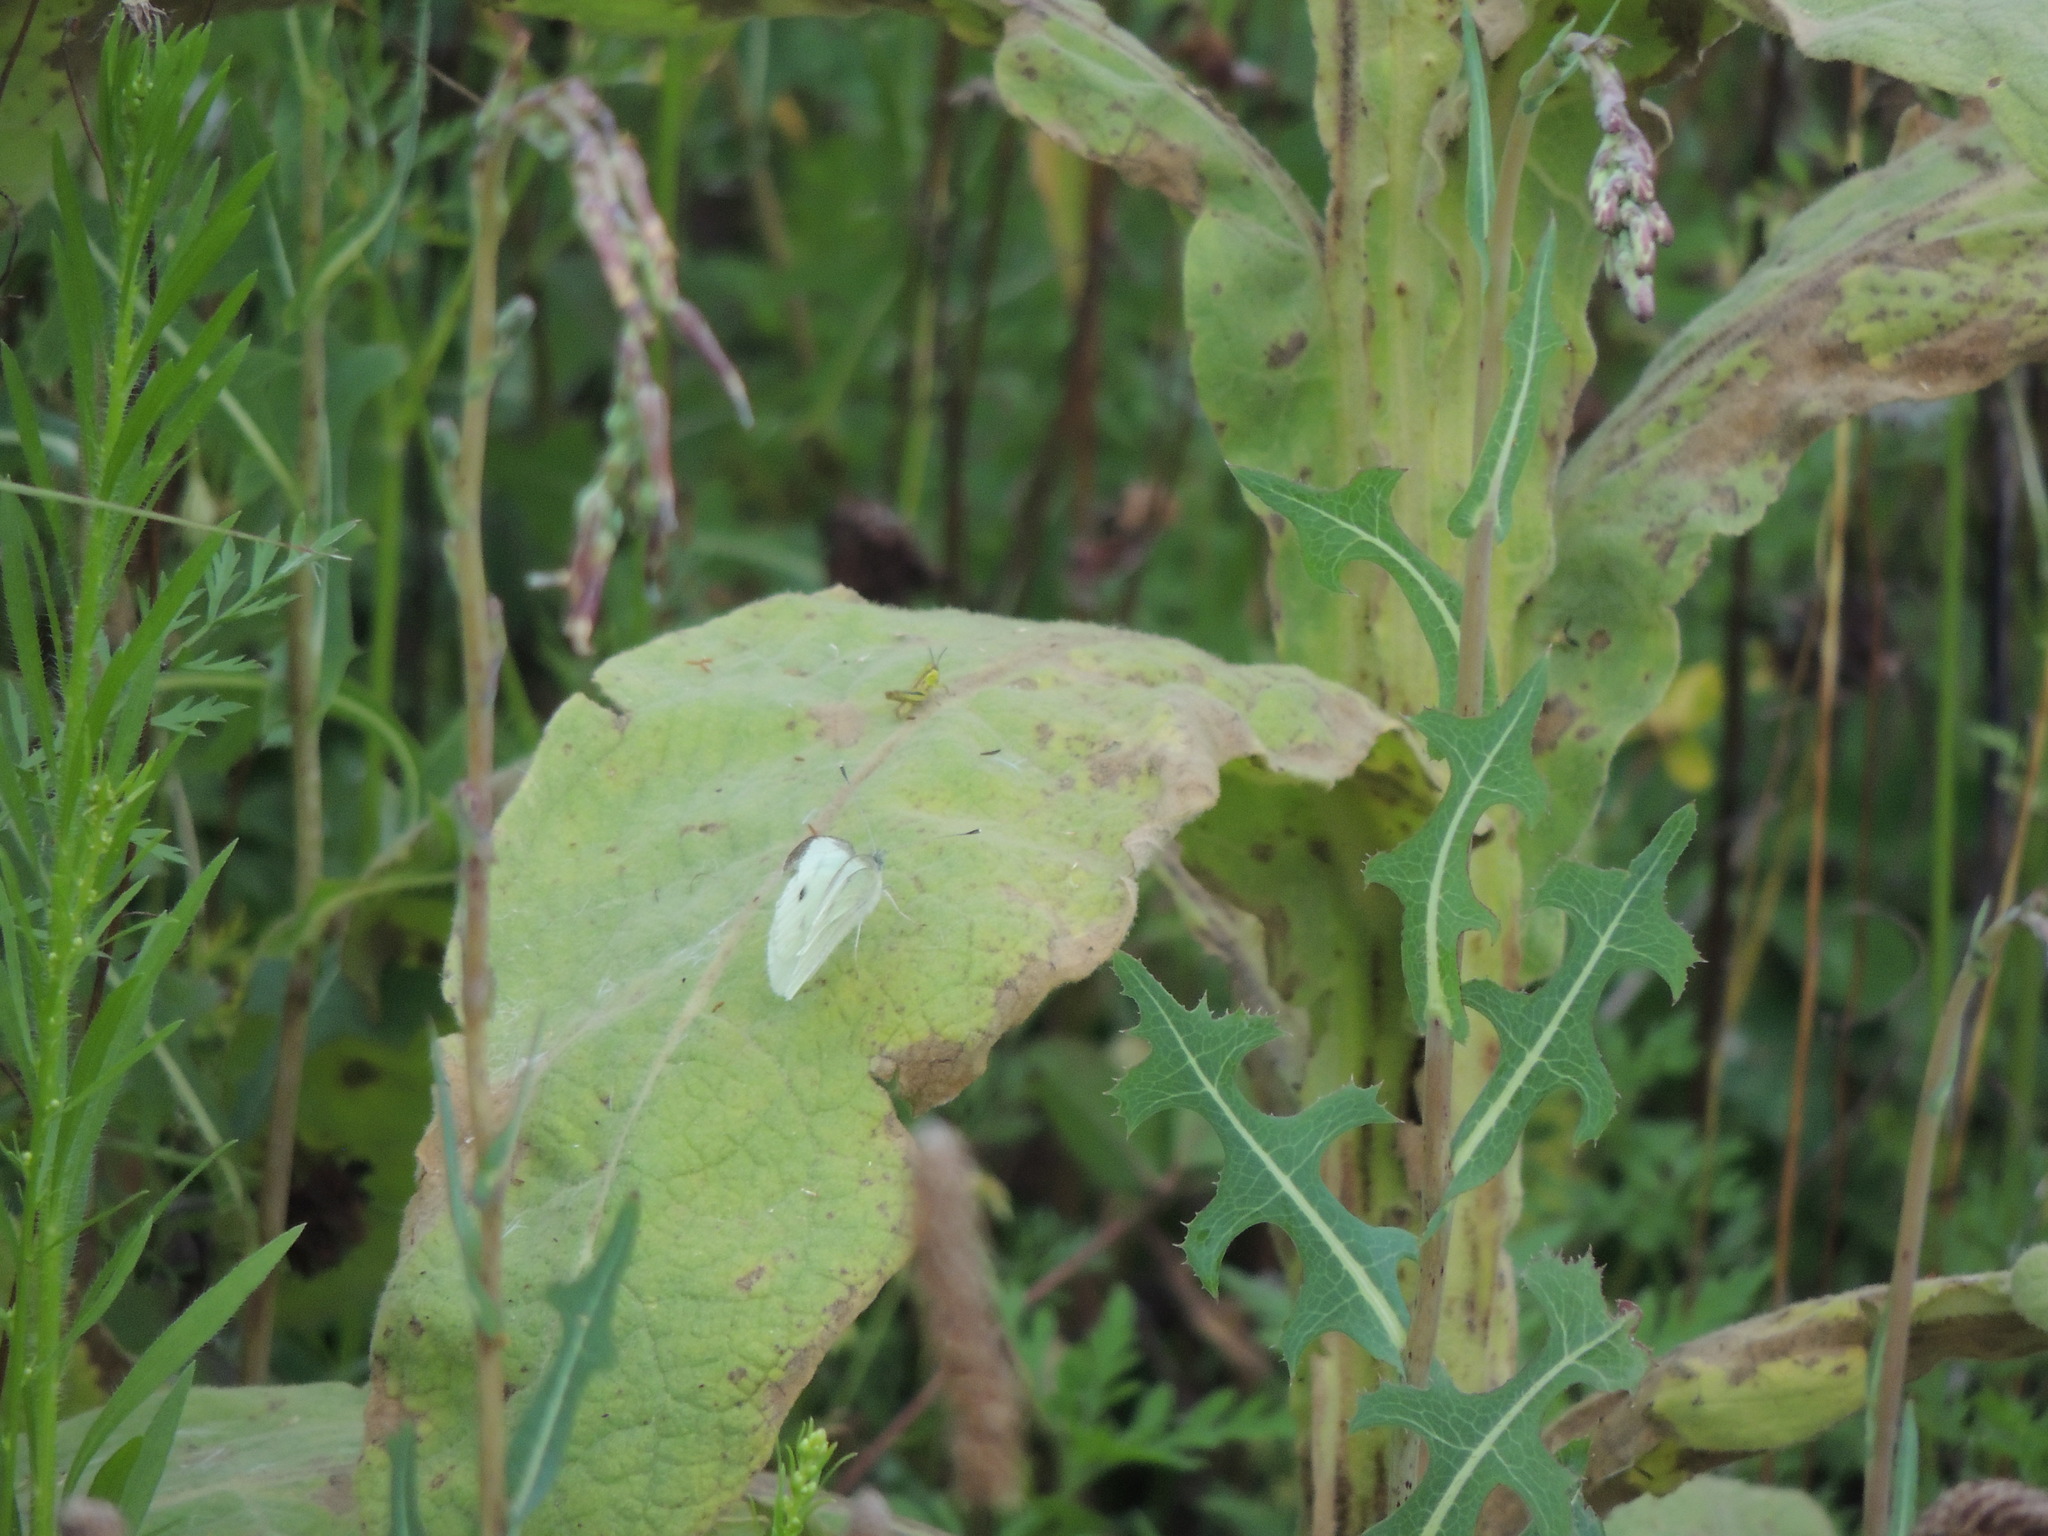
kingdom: Animalia
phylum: Arthropoda
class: Insecta
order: Lepidoptera
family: Pieridae
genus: Pieris
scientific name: Pieris rapae
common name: Small white
